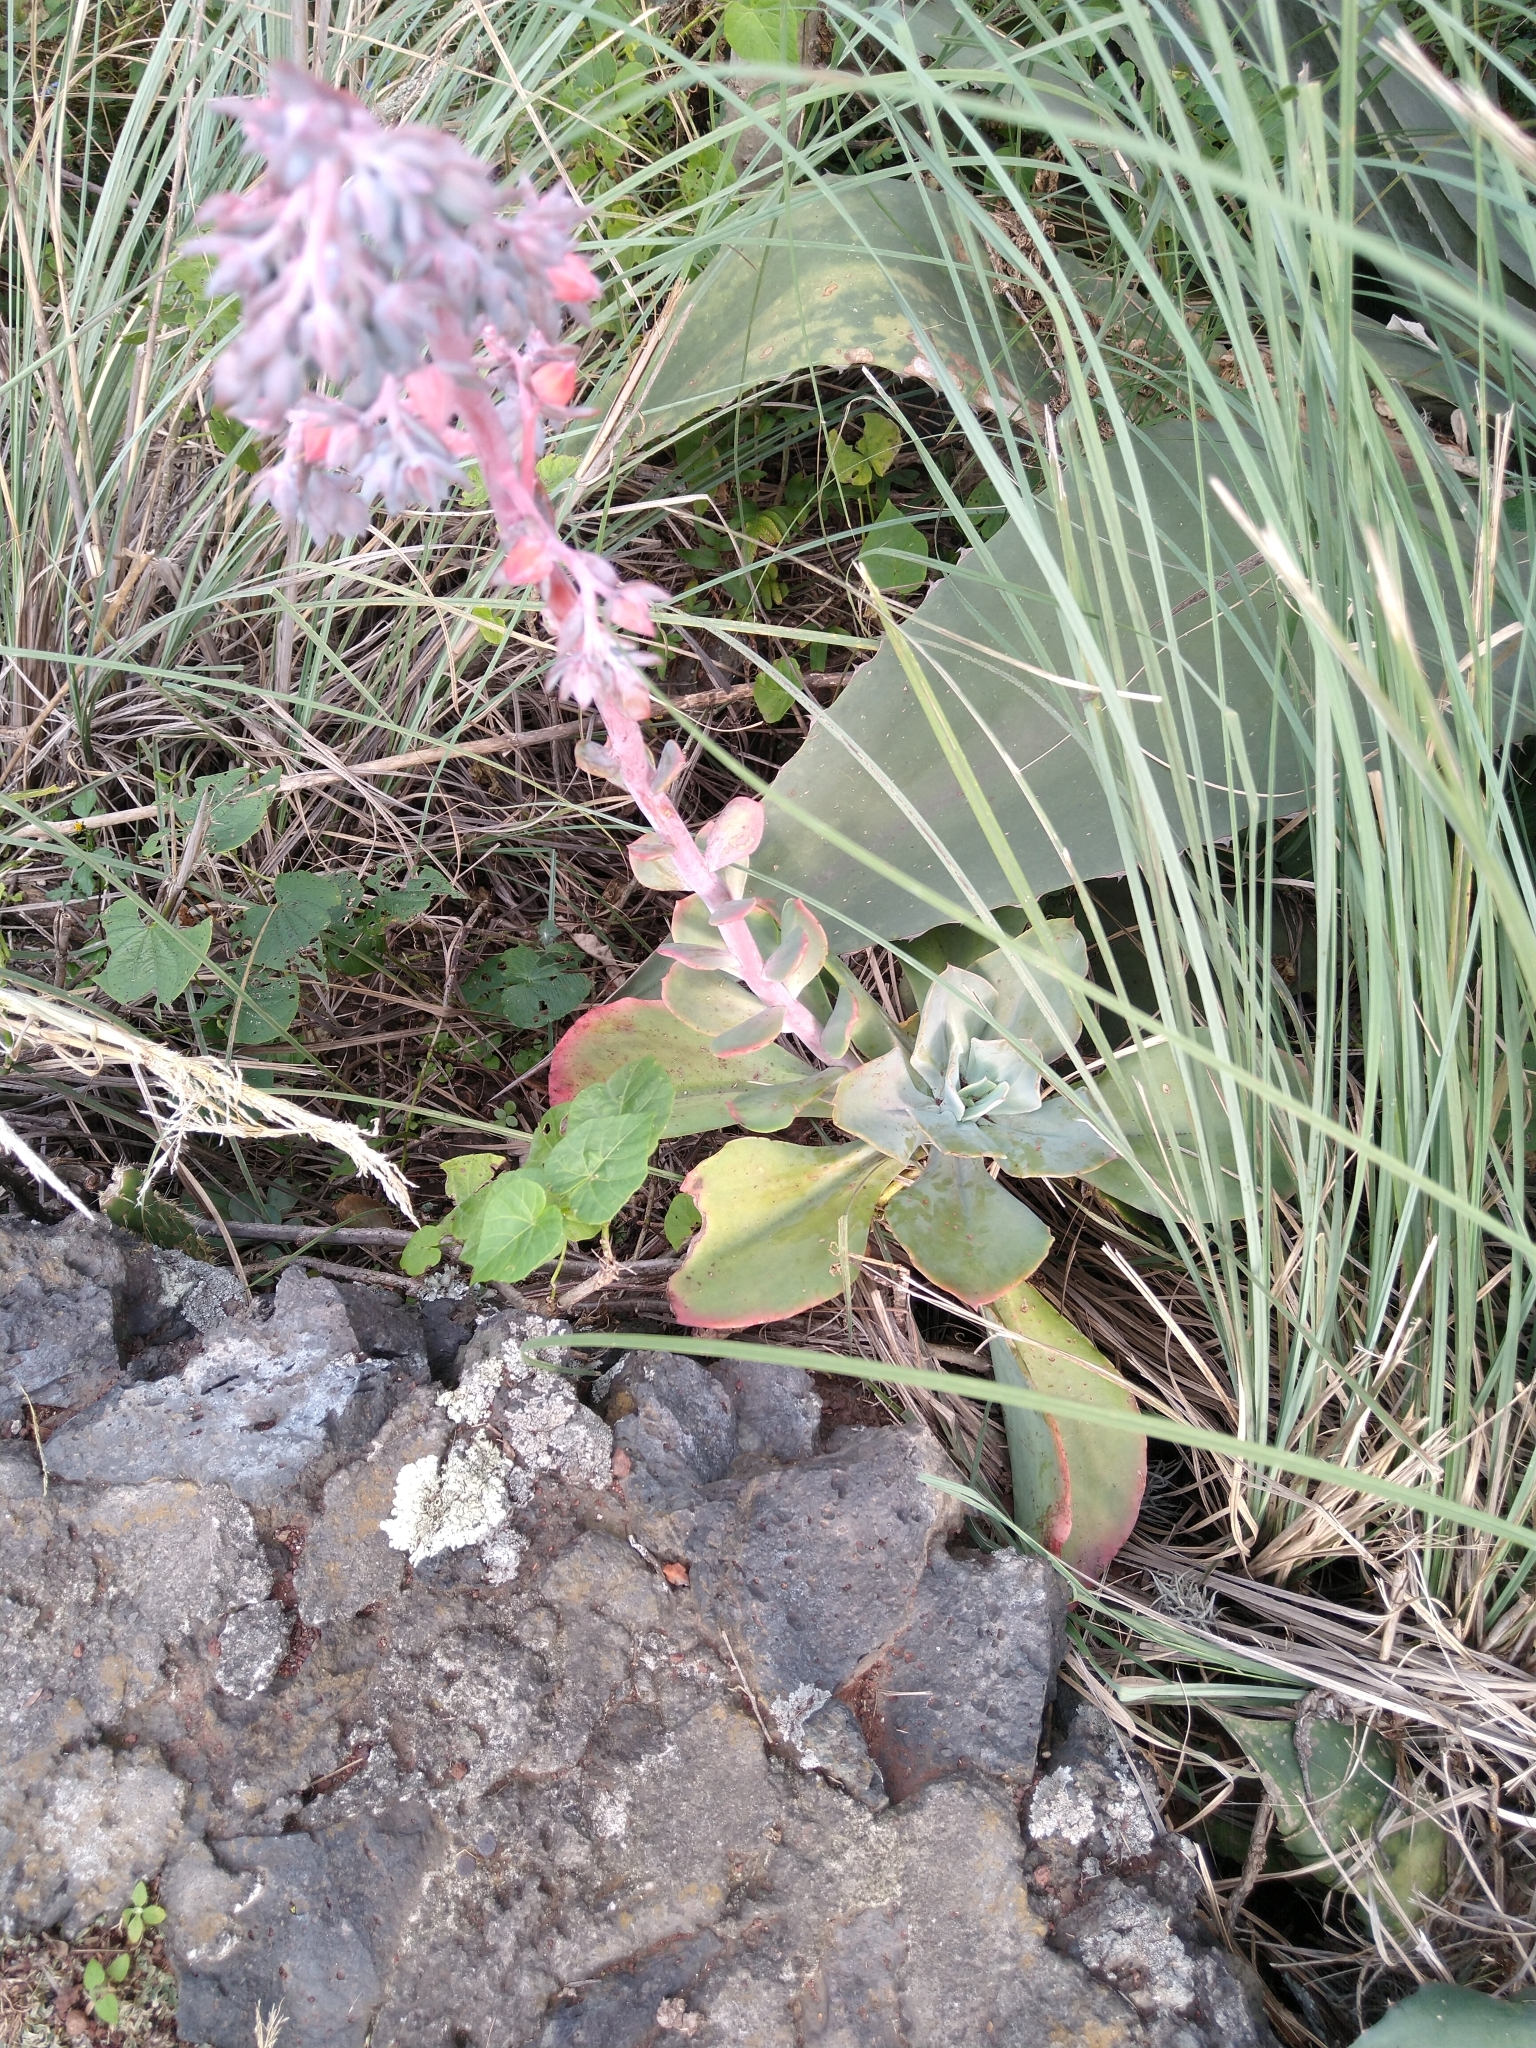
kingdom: Plantae
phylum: Tracheophyta
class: Magnoliopsida
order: Saxifragales
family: Crassulaceae
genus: Echeveria
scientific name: Echeveria gibbiflora
